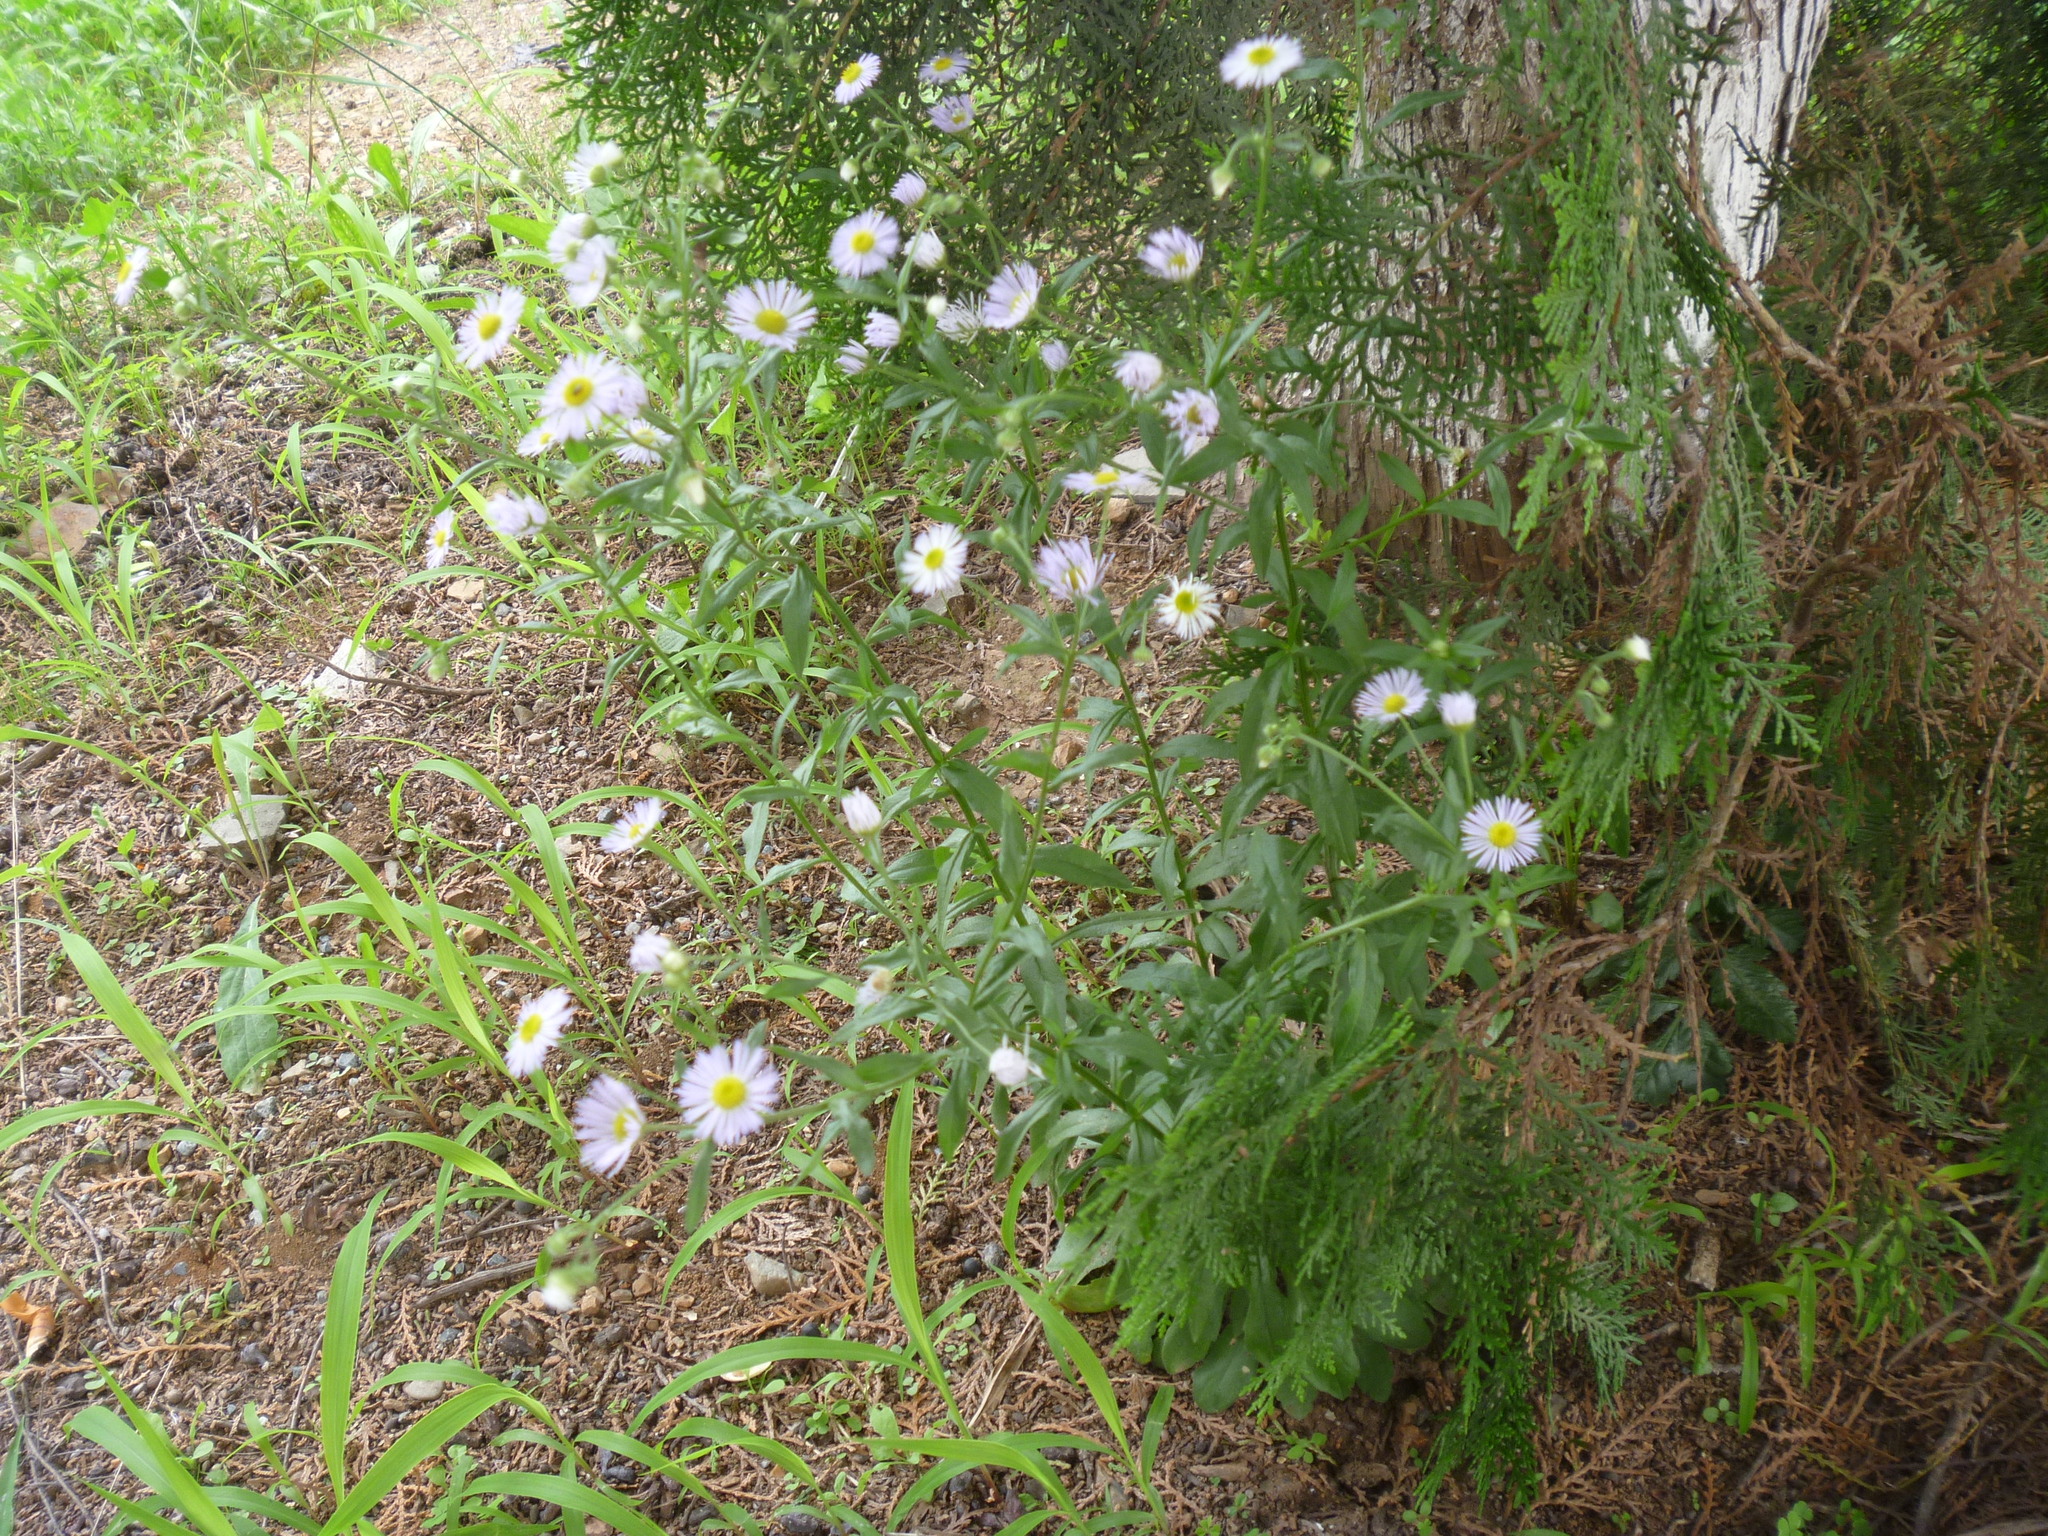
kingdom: Plantae
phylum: Tracheophyta
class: Magnoliopsida
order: Asterales
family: Asteraceae
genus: Erigeron
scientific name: Erigeron annuus
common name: Tall fleabane
